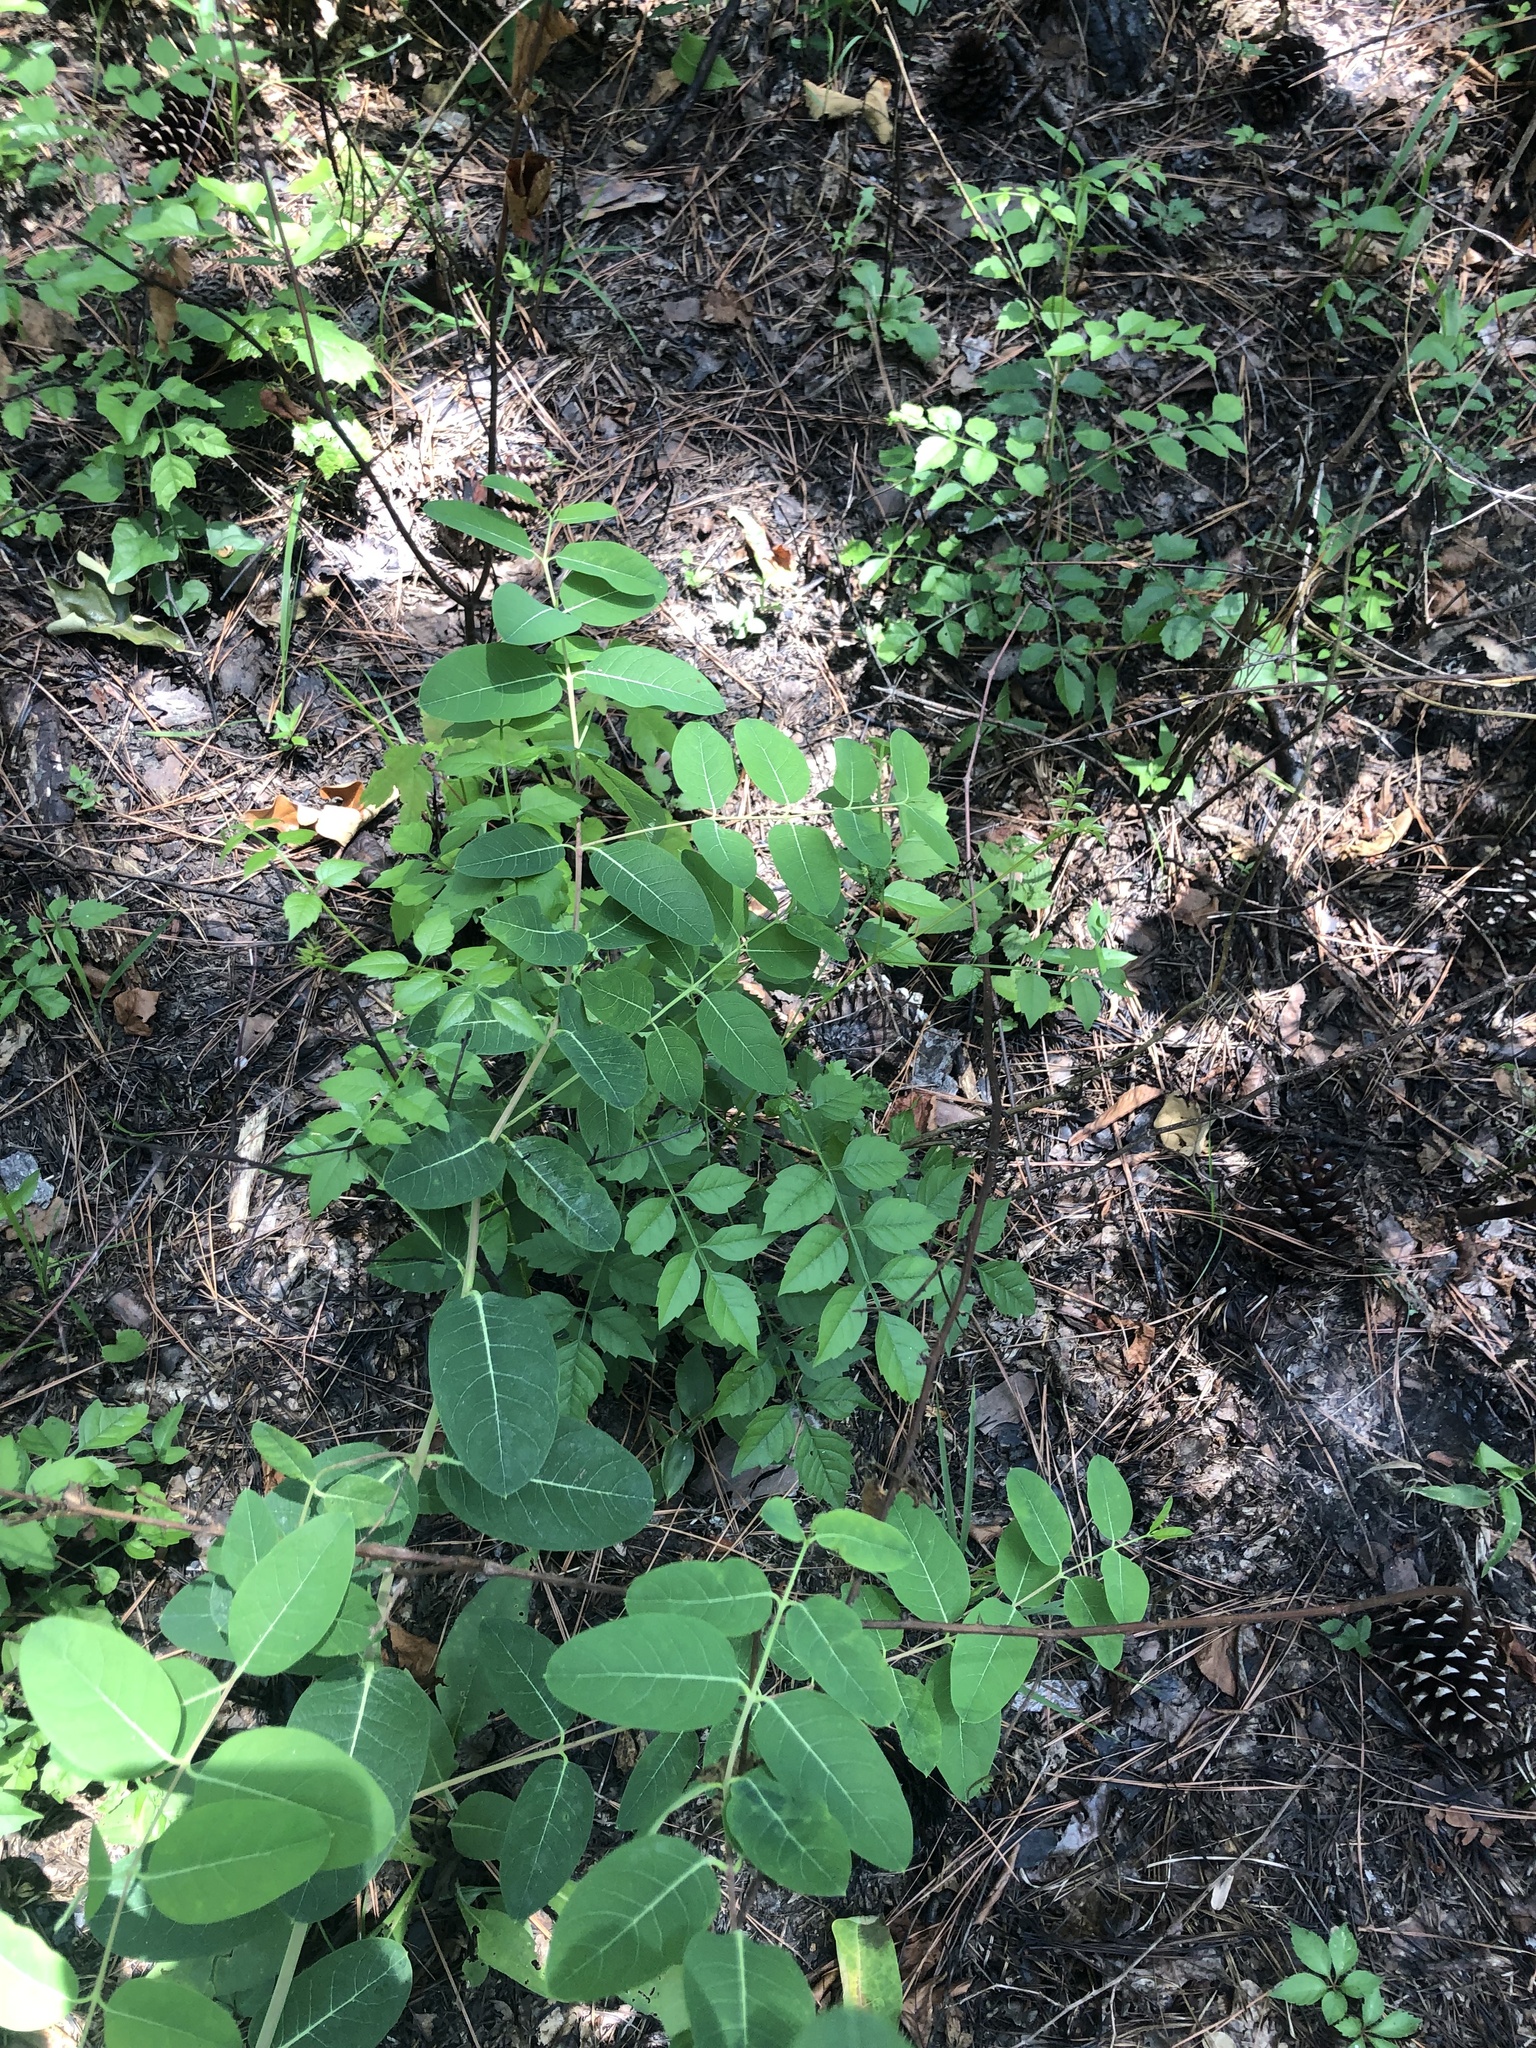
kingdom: Plantae
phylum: Tracheophyta
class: Magnoliopsida
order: Gentianales
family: Apocynaceae
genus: Apocynum
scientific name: Apocynum cannabinum
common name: Hemp dogbane
